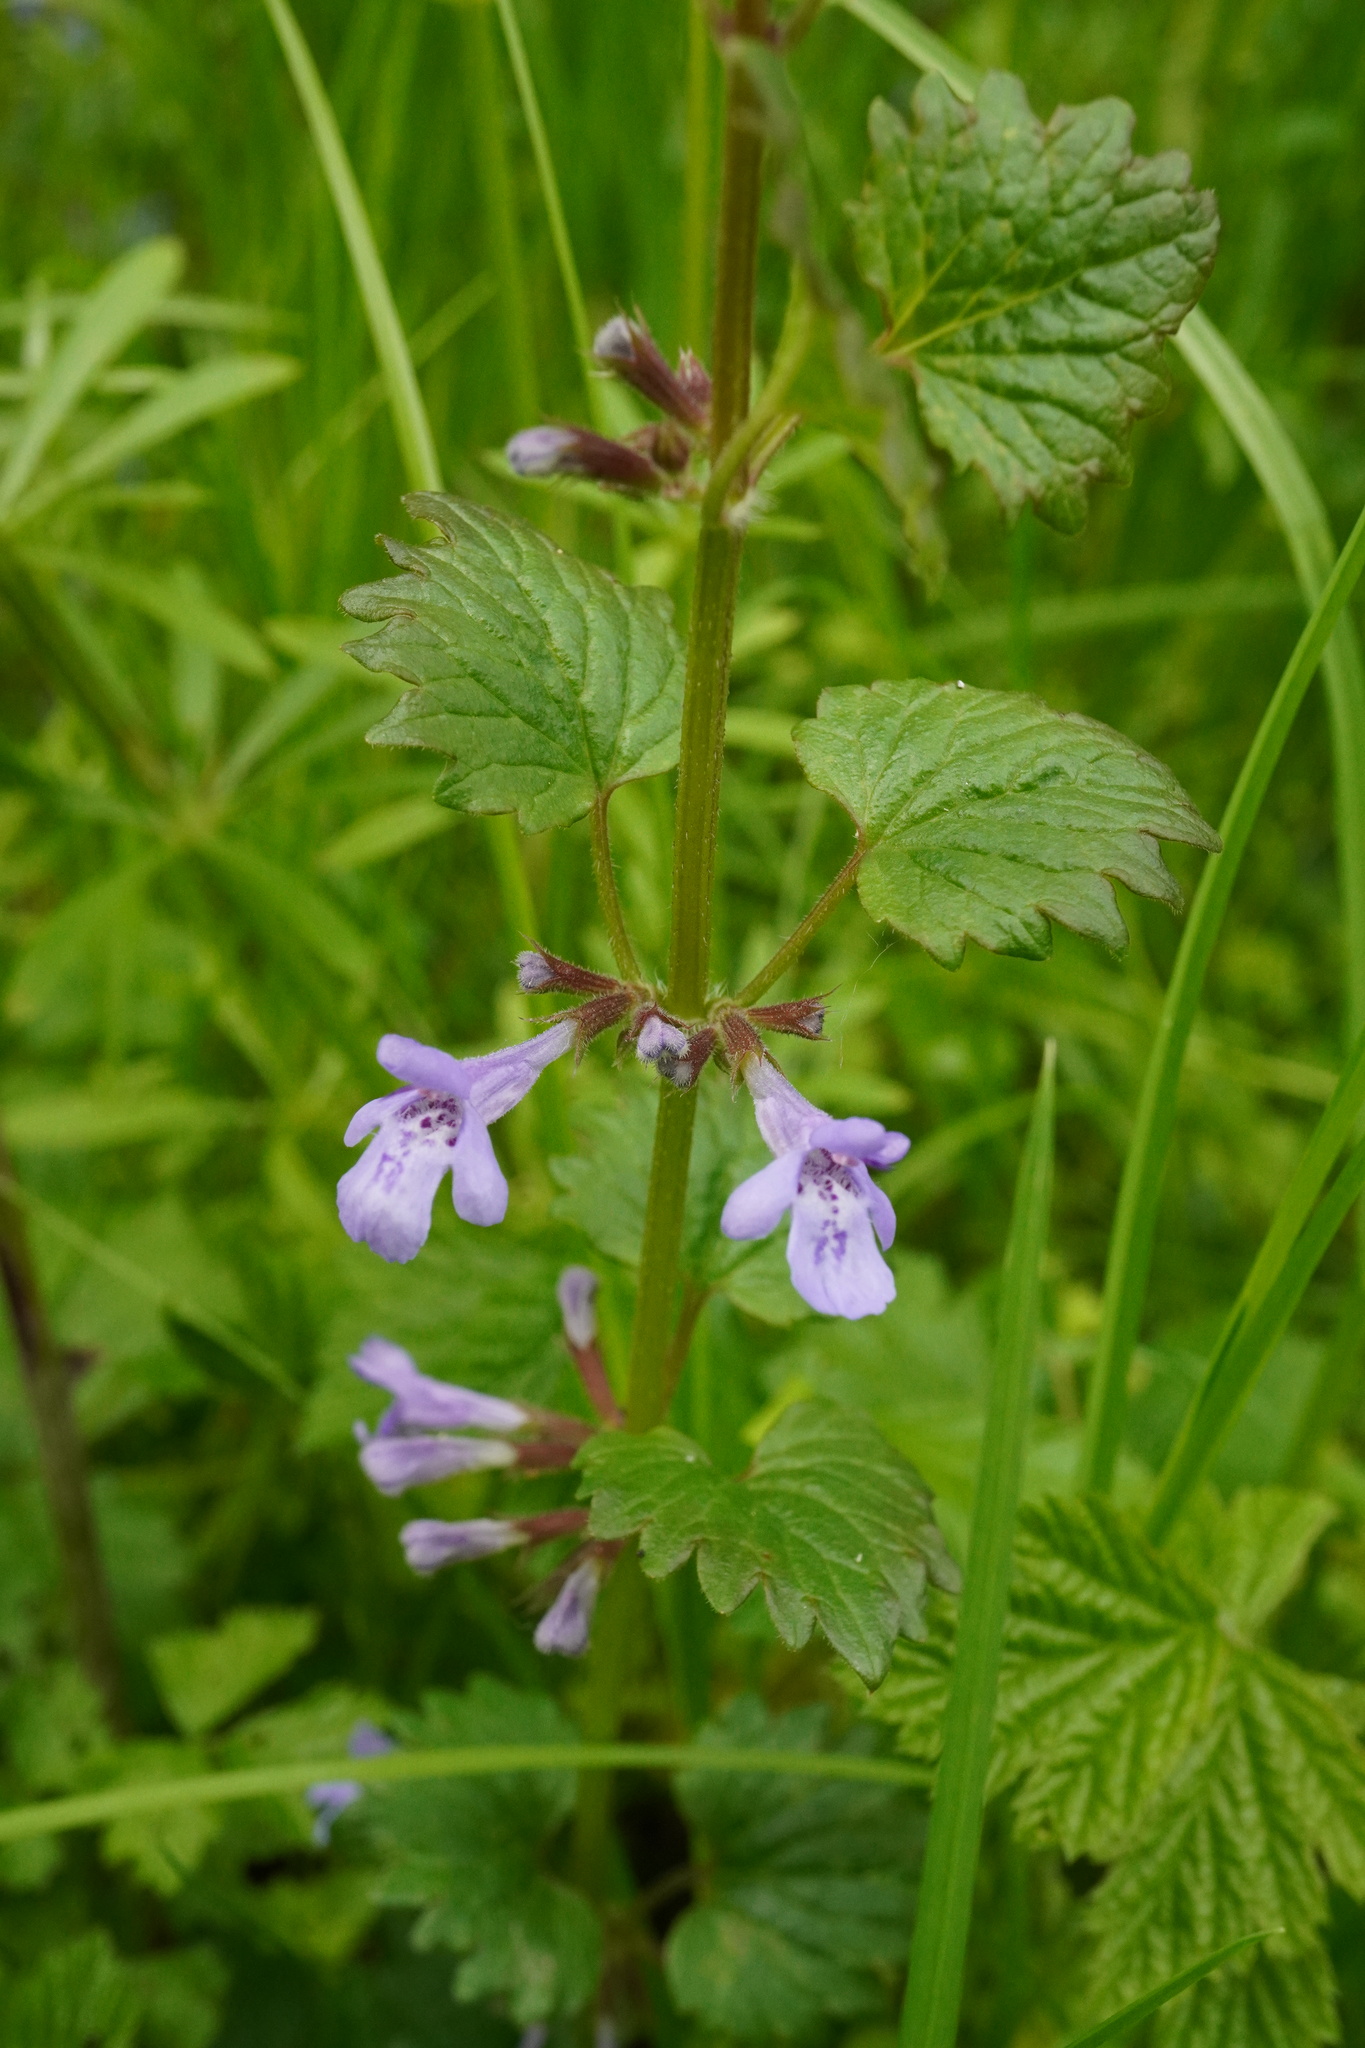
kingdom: Plantae
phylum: Tracheophyta
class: Magnoliopsida
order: Lamiales
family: Lamiaceae
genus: Glechoma
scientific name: Glechoma hederacea
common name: Ground ivy
